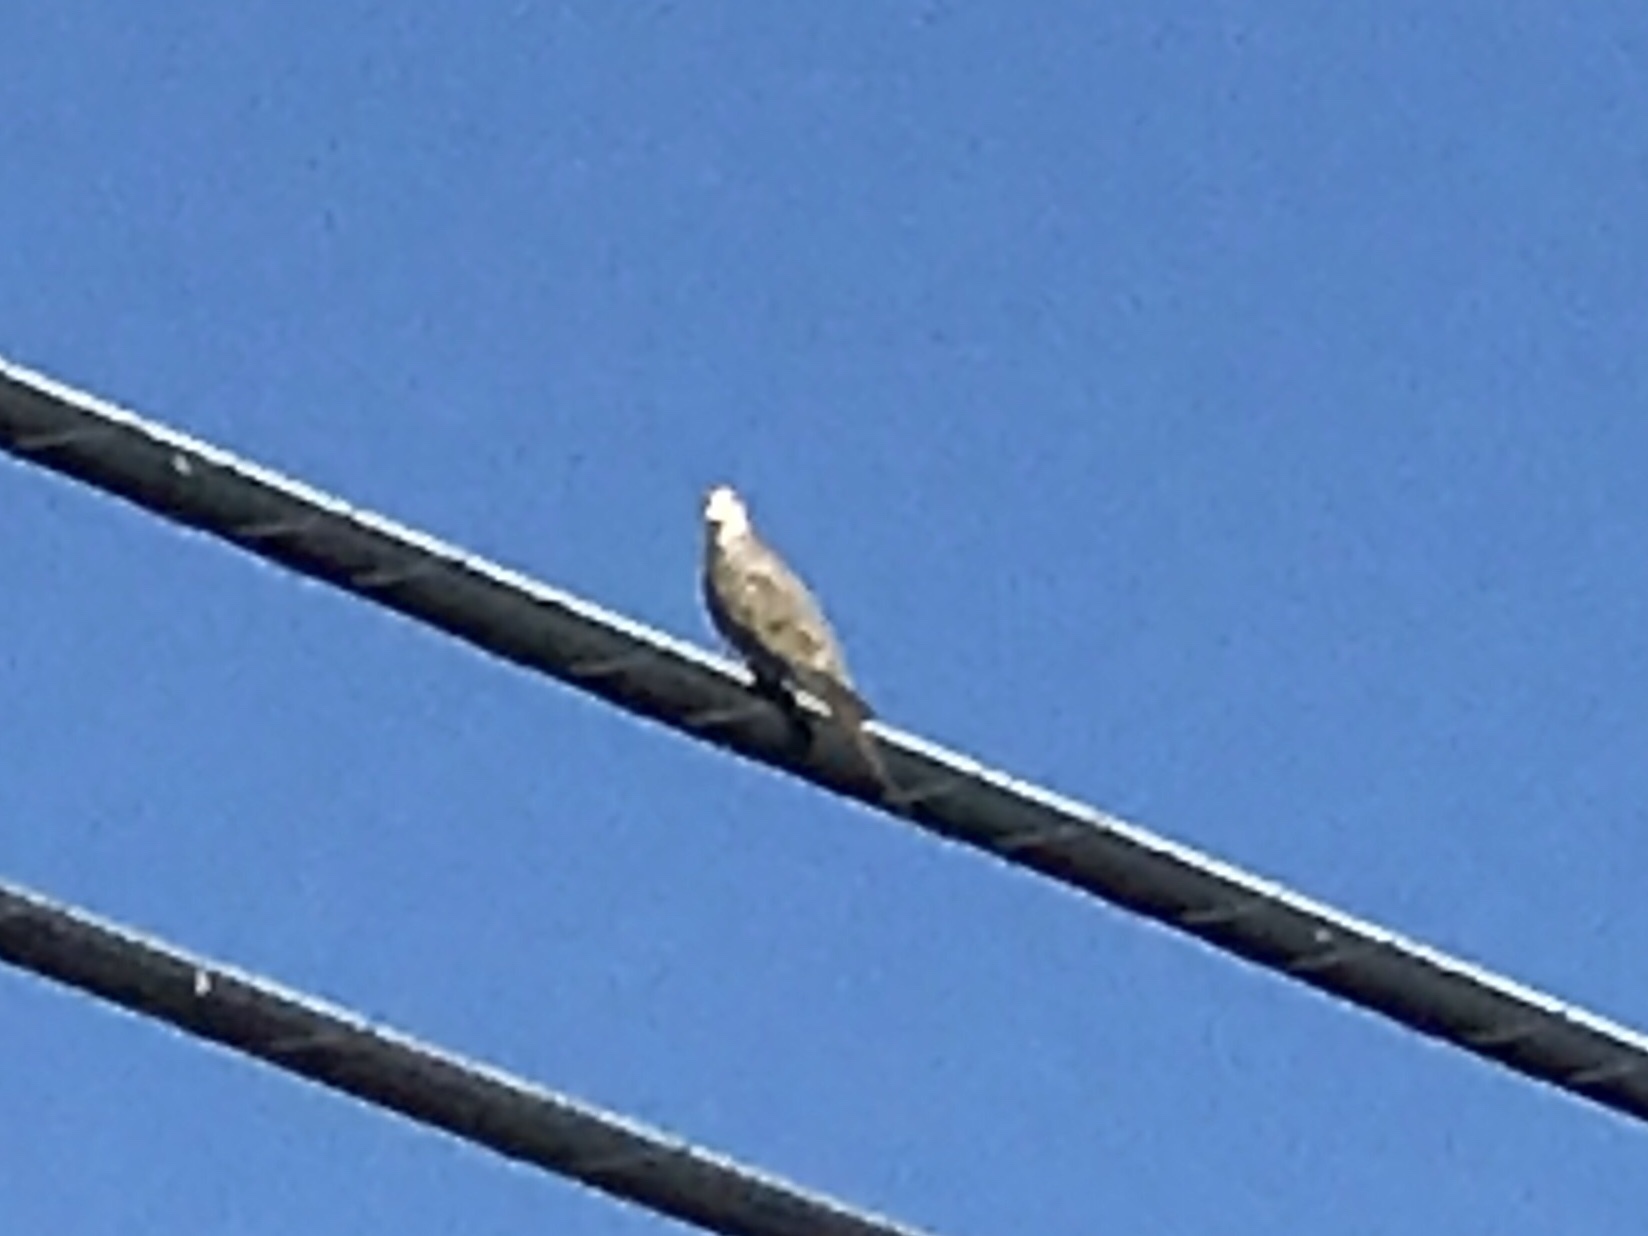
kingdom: Animalia
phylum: Chordata
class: Aves
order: Columbiformes
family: Columbidae
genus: Zenaida
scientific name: Zenaida macroura
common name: Mourning dove
